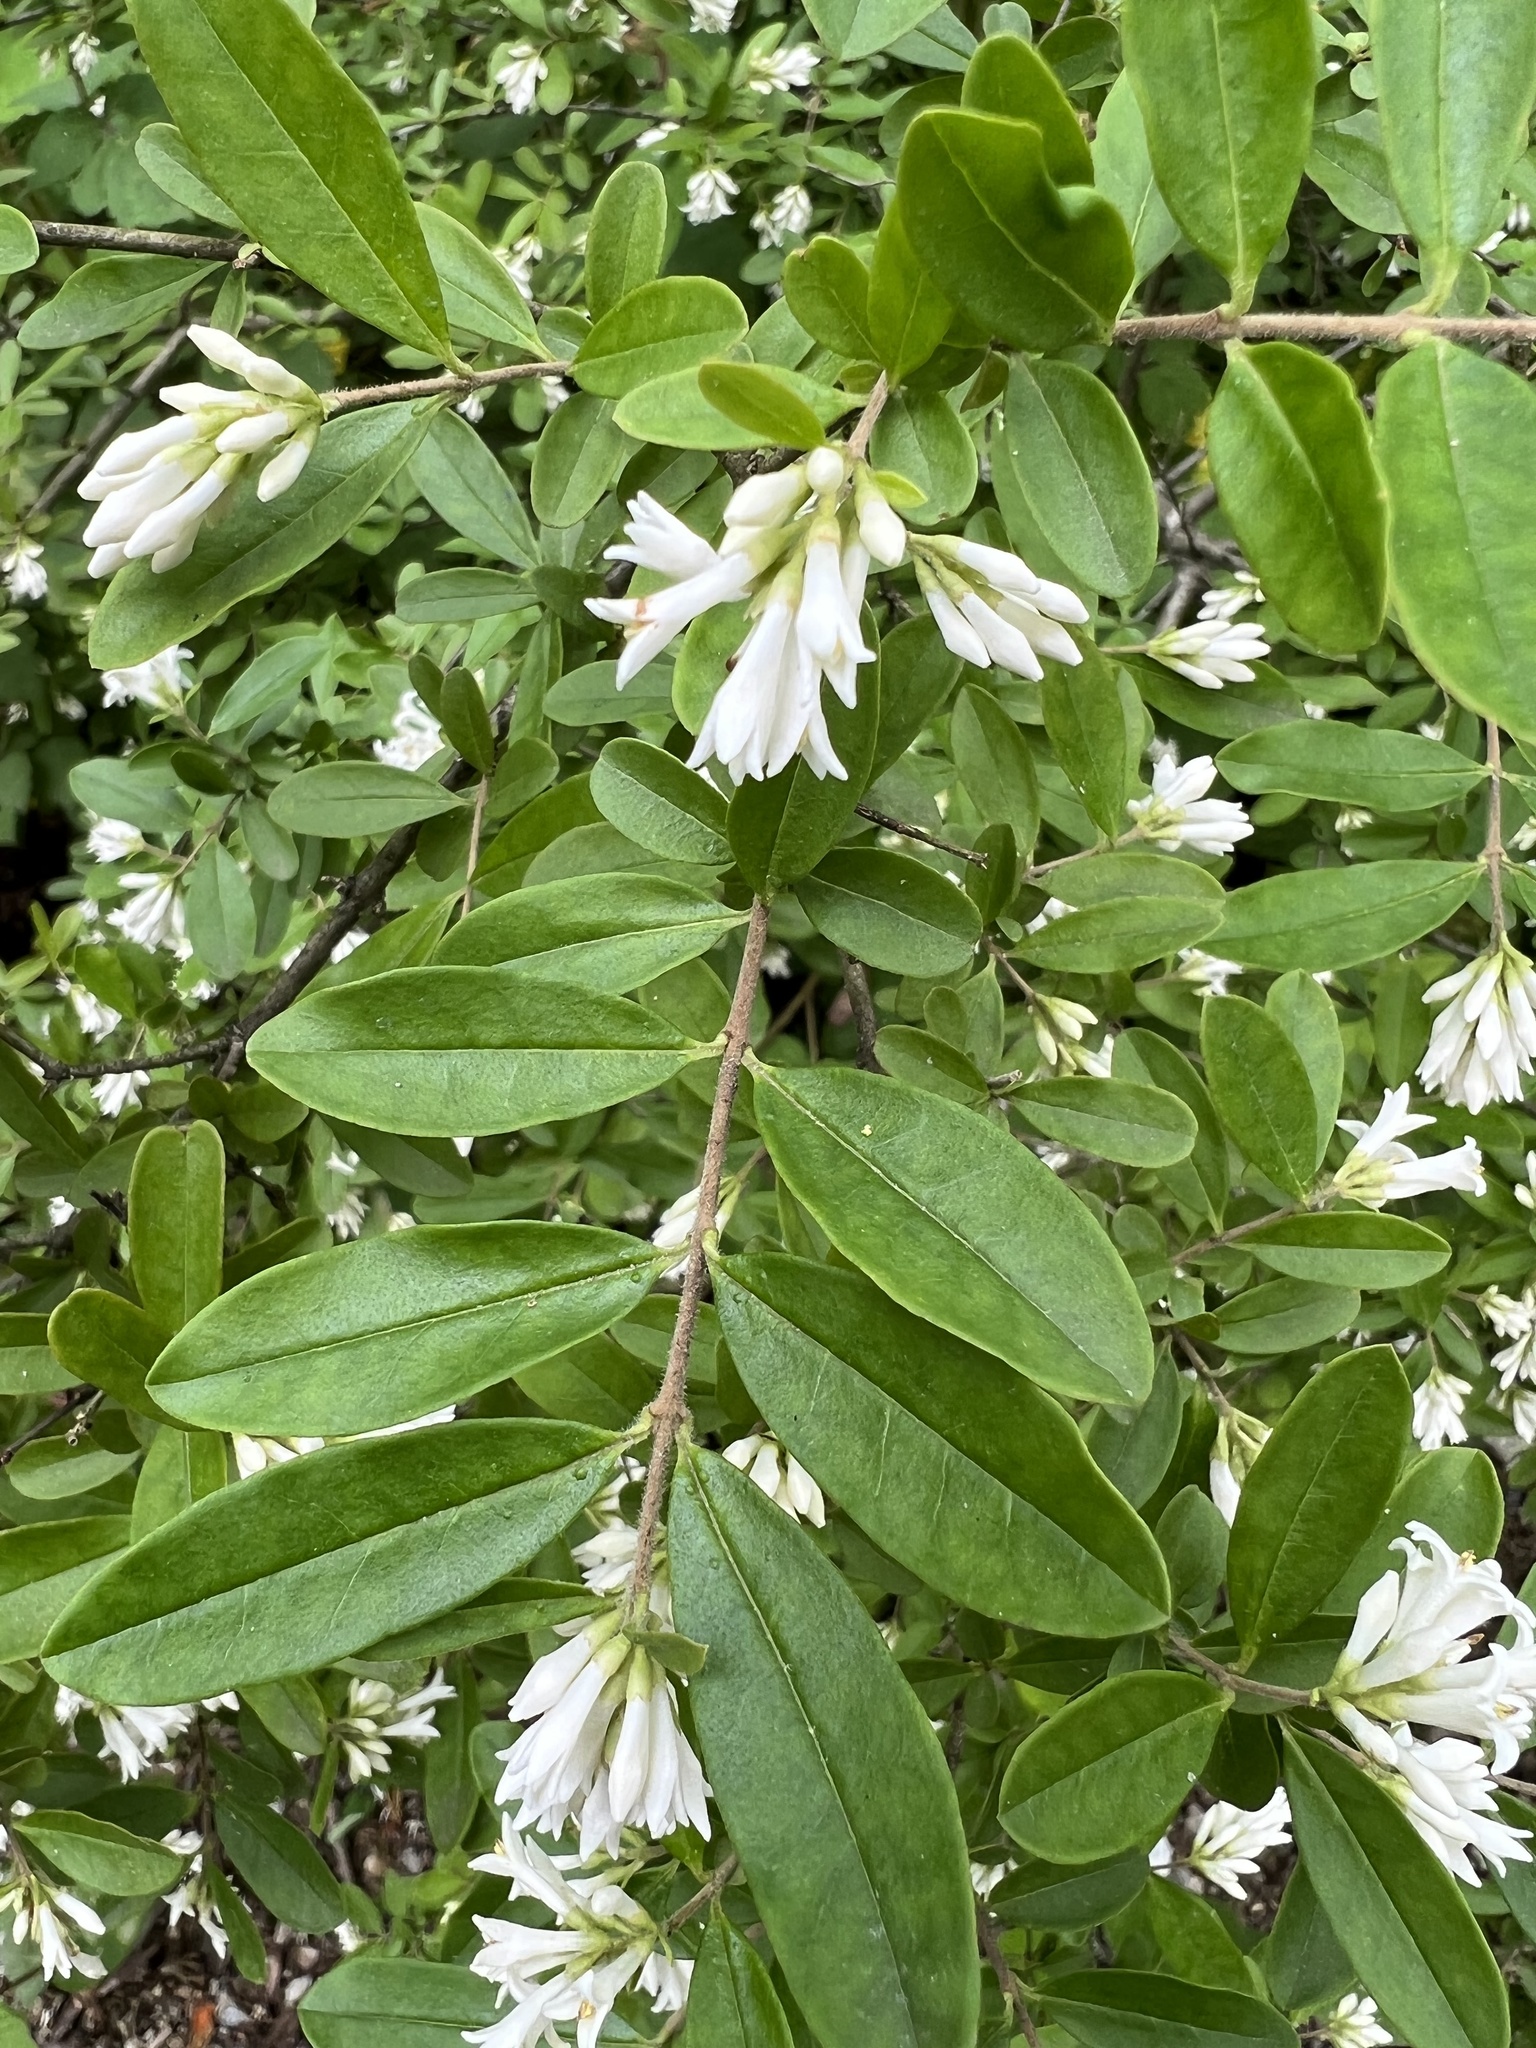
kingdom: Plantae
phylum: Tracheophyta
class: Magnoliopsida
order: Lamiales
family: Oleaceae
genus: Ligustrum
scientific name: Ligustrum obtusifolium
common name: Border privet
